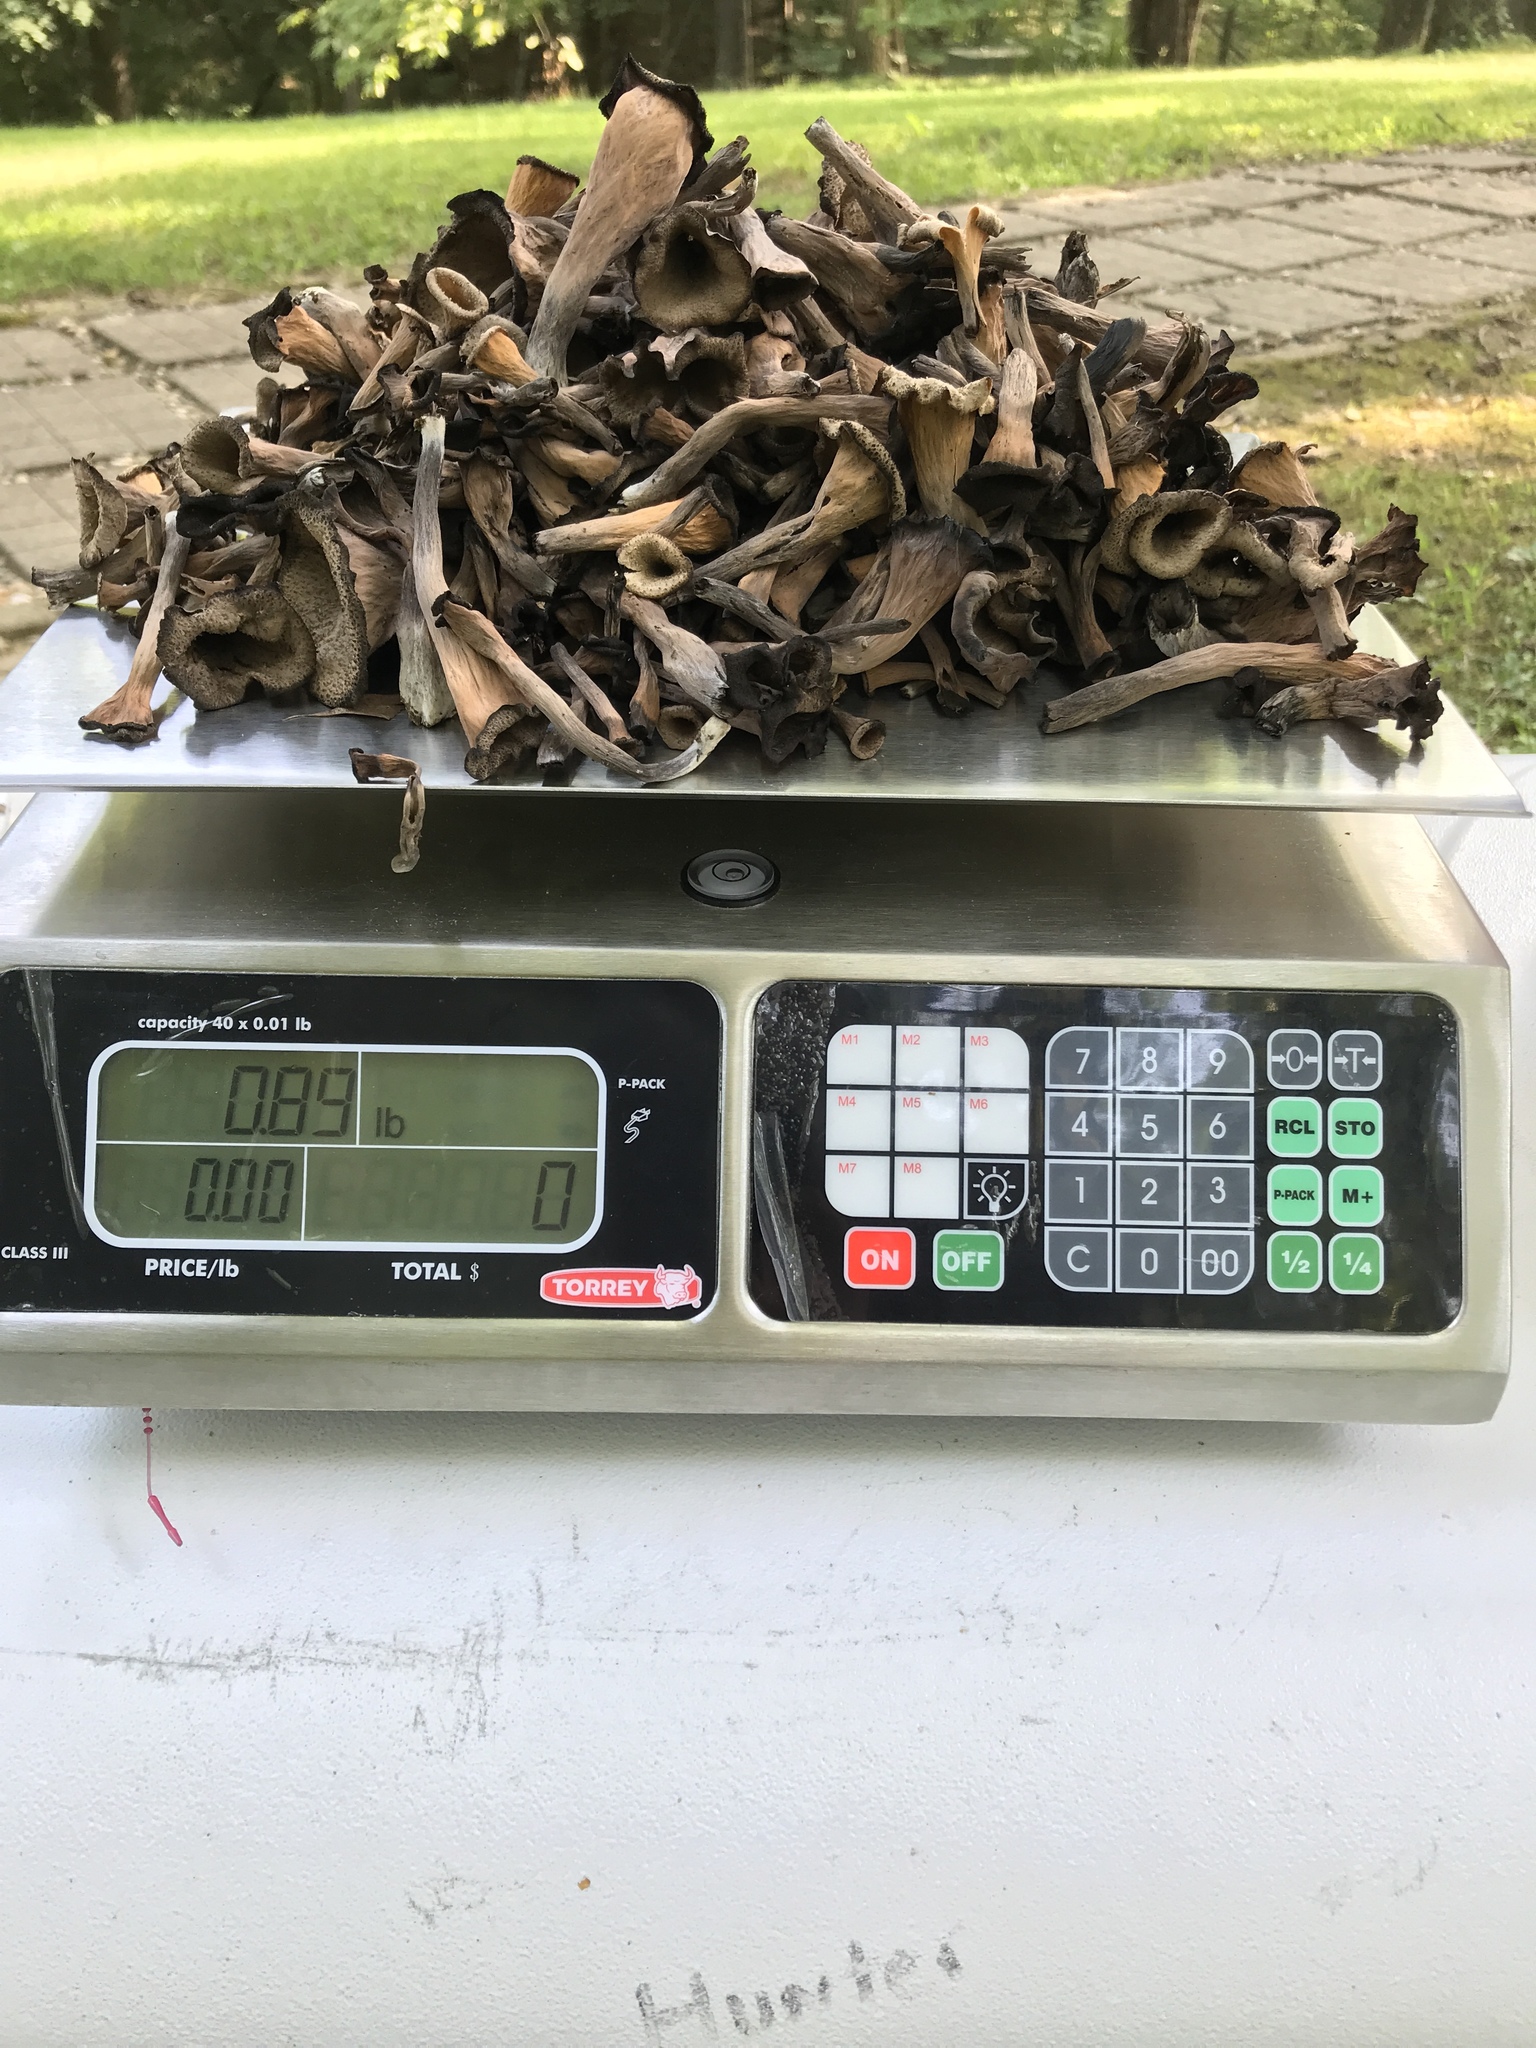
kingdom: Fungi
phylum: Basidiomycota
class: Agaricomycetes
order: Cantharellales
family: Hydnaceae
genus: Craterellus
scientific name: Craterellus cornucopioides
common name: Horn of plenty
